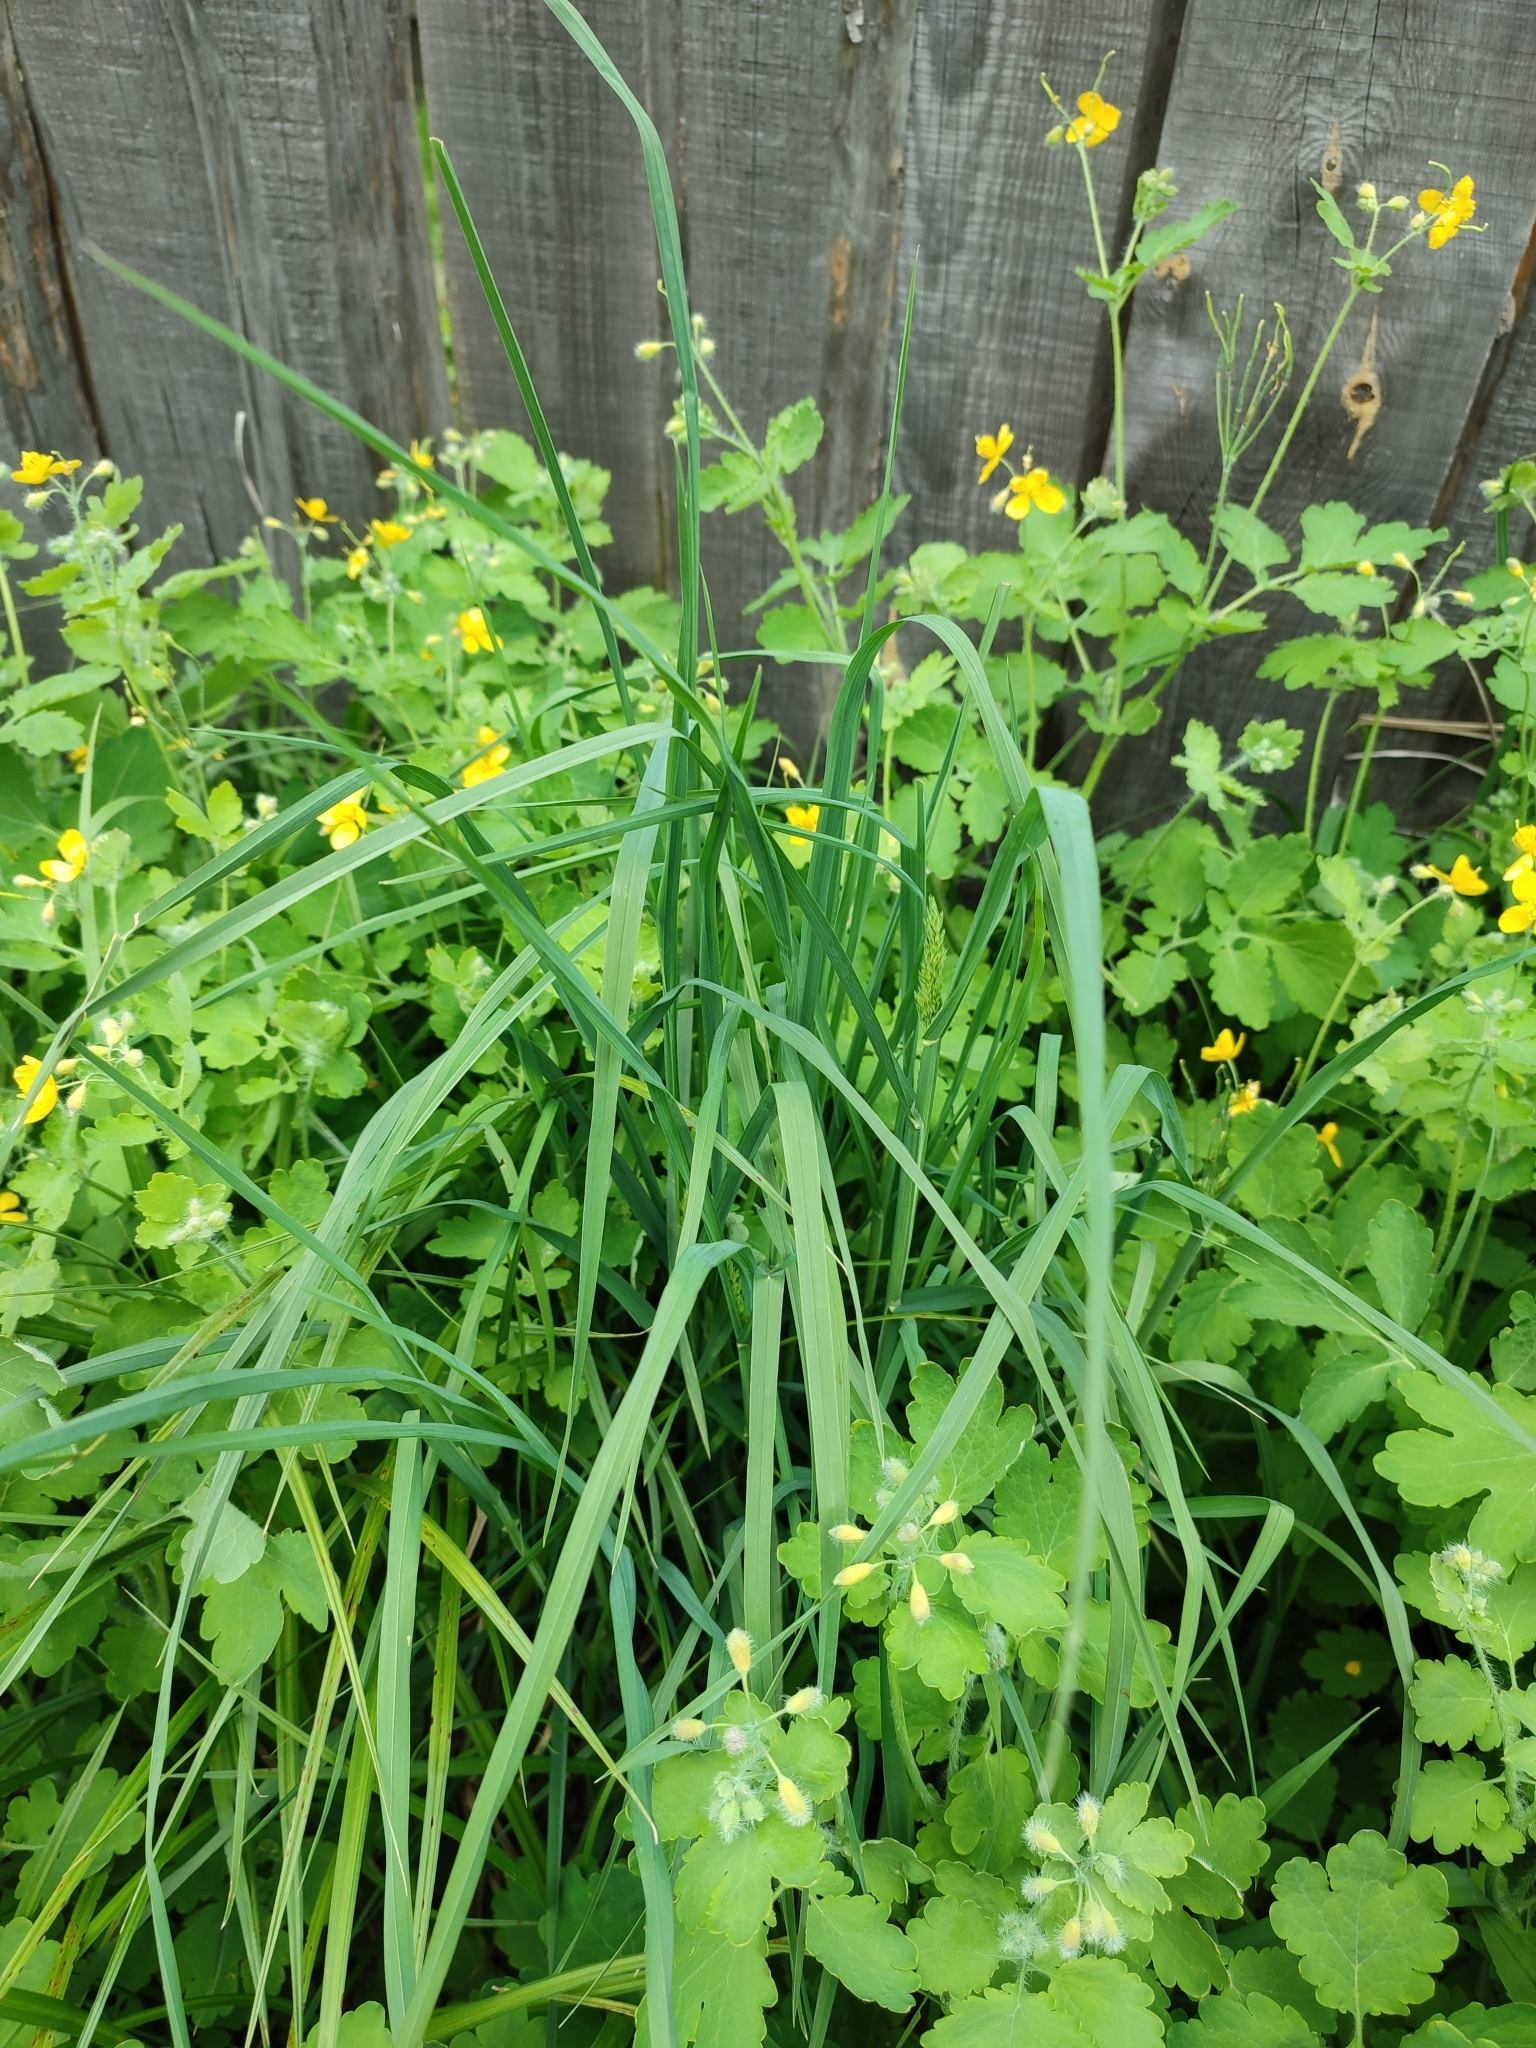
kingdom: Plantae
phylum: Tracheophyta
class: Liliopsida
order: Poales
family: Poaceae
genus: Dactylis
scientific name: Dactylis glomerata
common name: Orchardgrass
